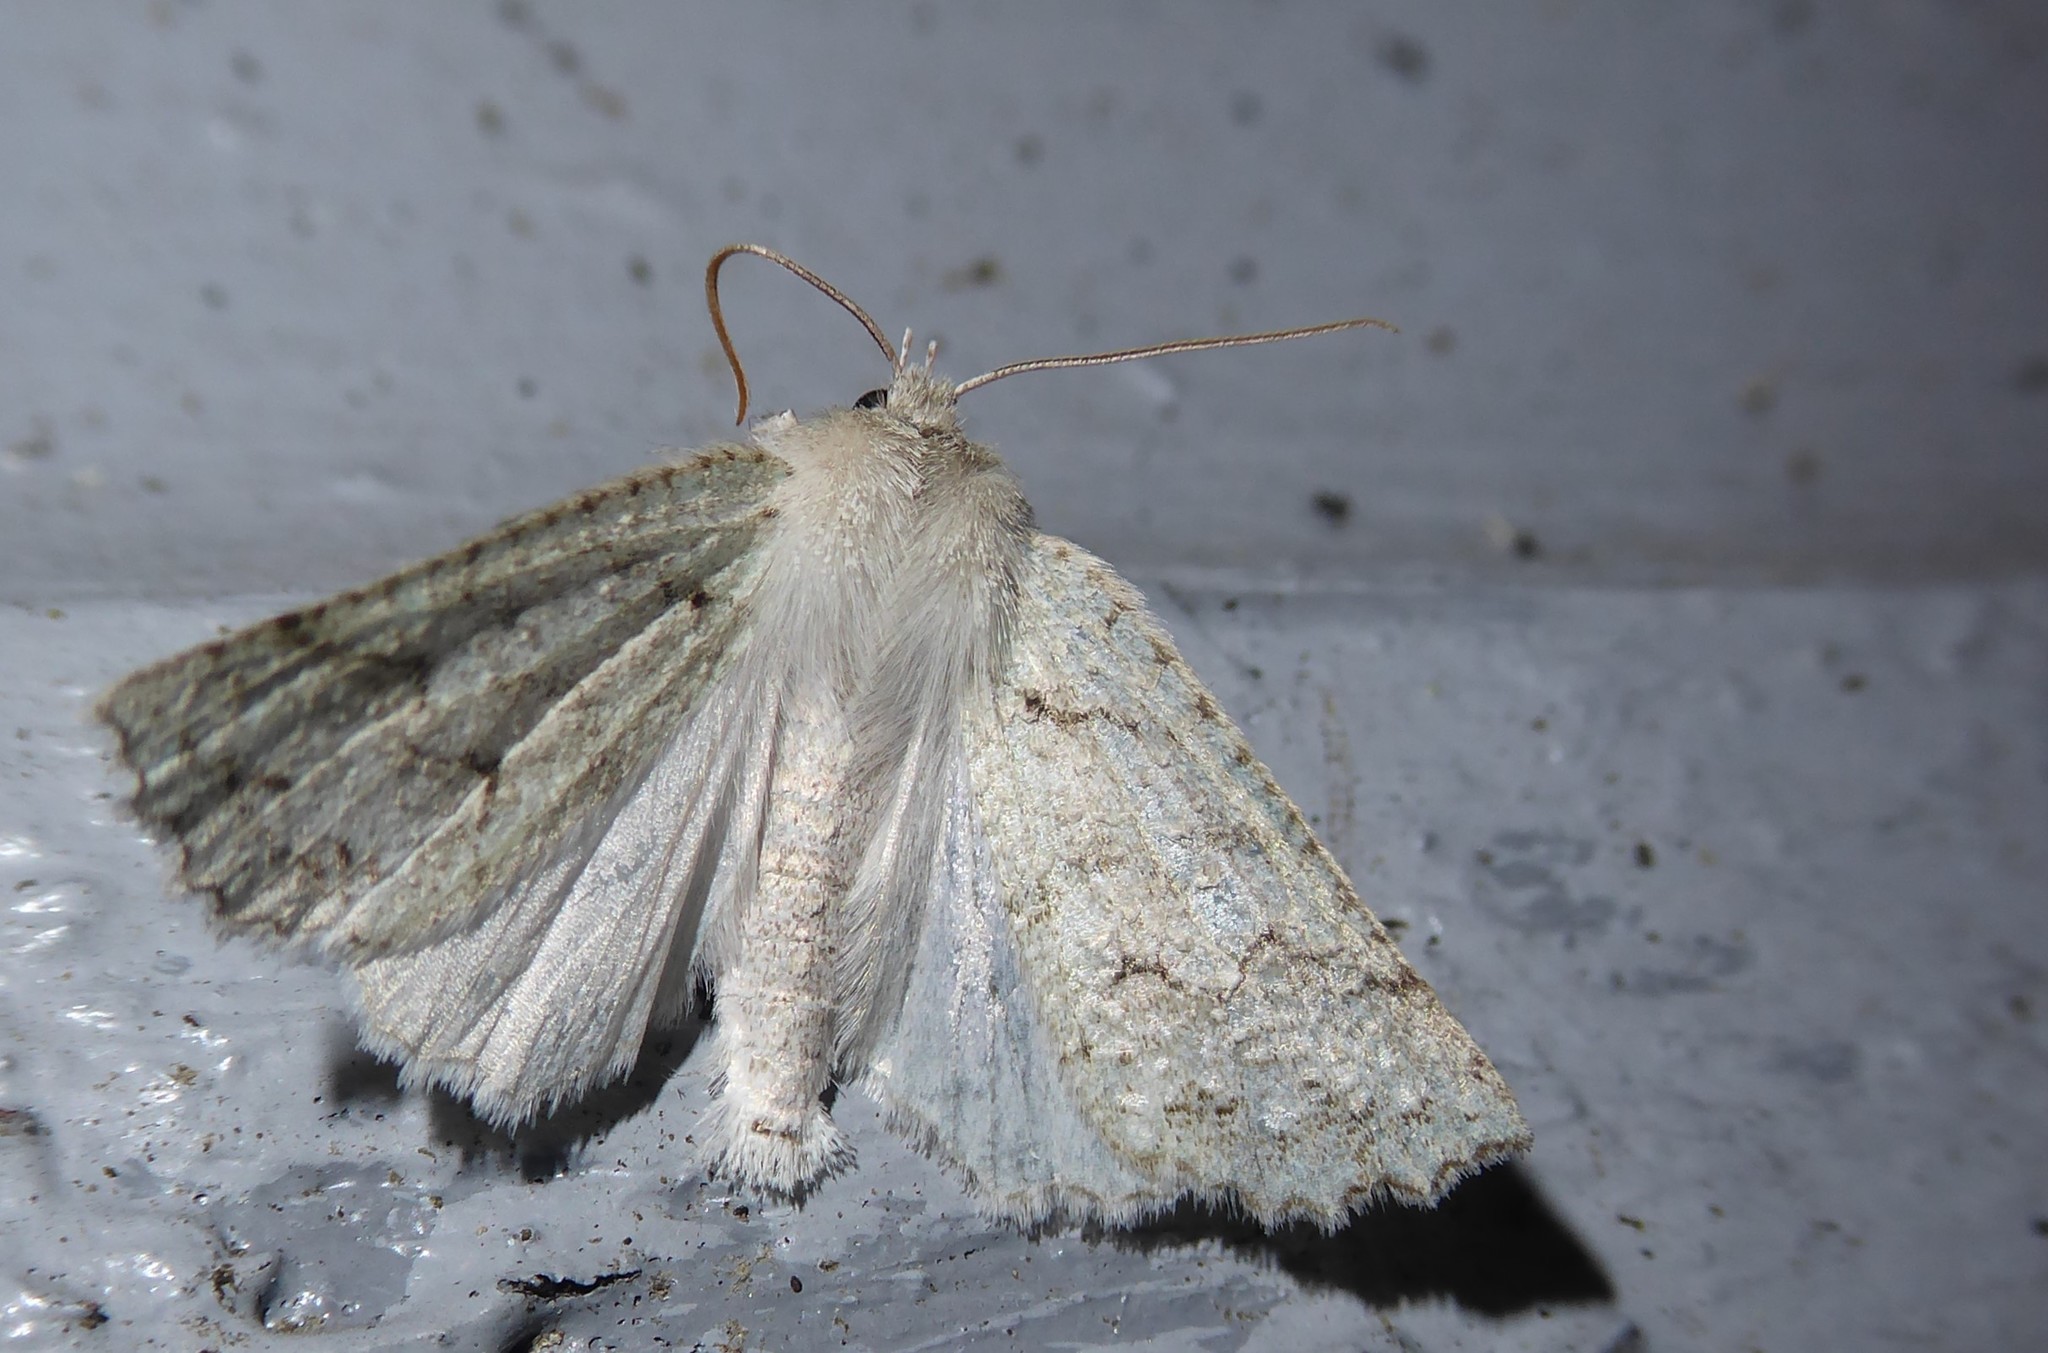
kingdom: Animalia
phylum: Arthropoda
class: Insecta
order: Lepidoptera
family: Geometridae
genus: Declana
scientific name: Declana niveata
